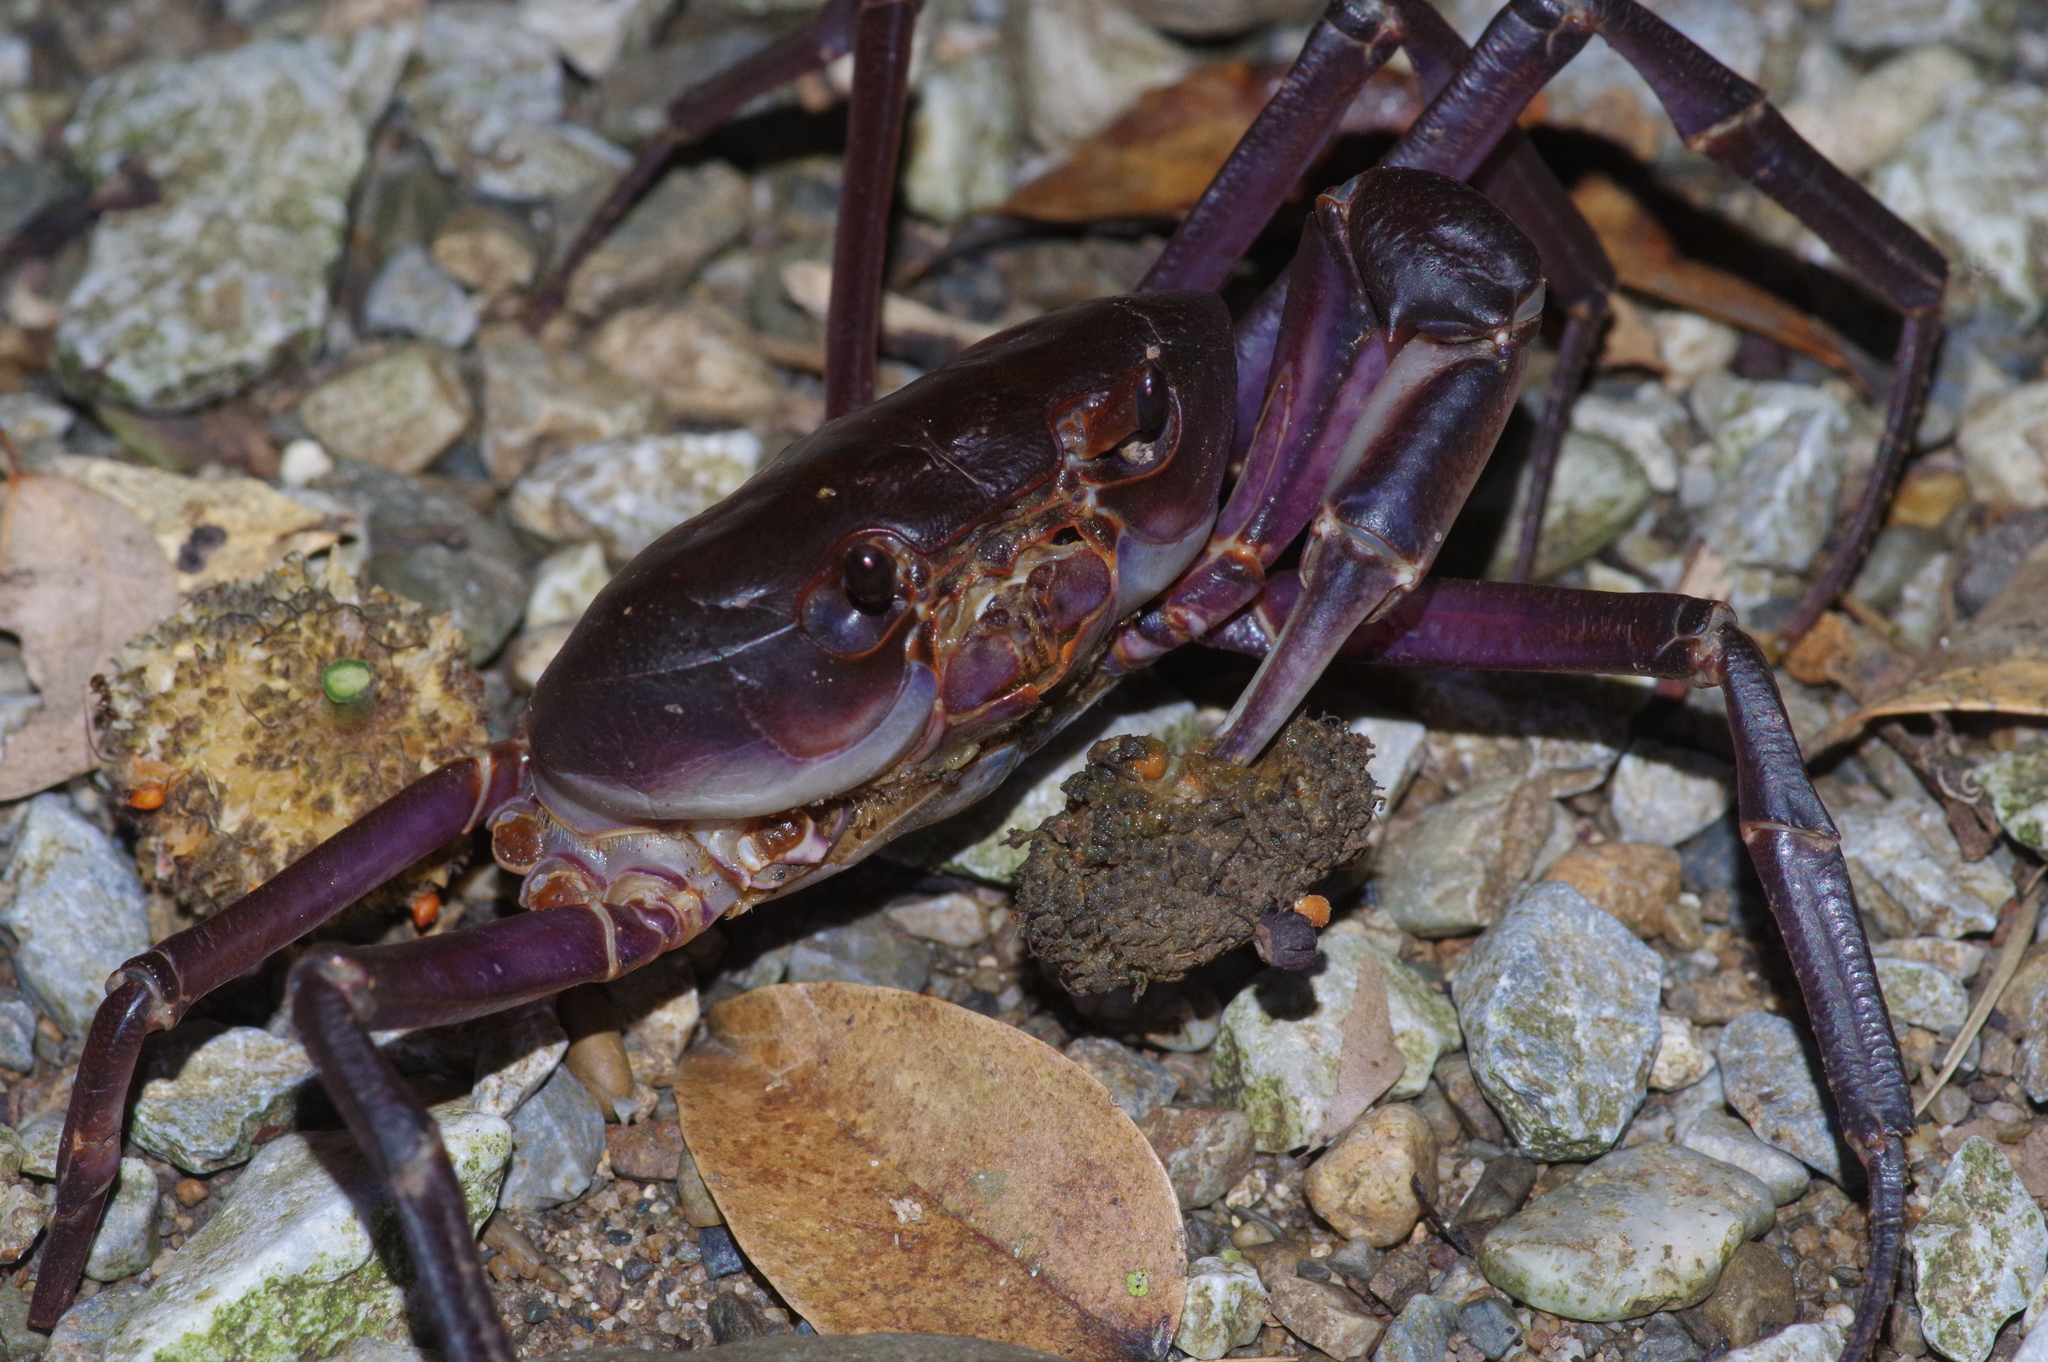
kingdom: Animalia
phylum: Arthropoda
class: Malacostraca
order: Decapoda
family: Potamidae
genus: Geothelphusa
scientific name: Geothelphusa tenuimanus
